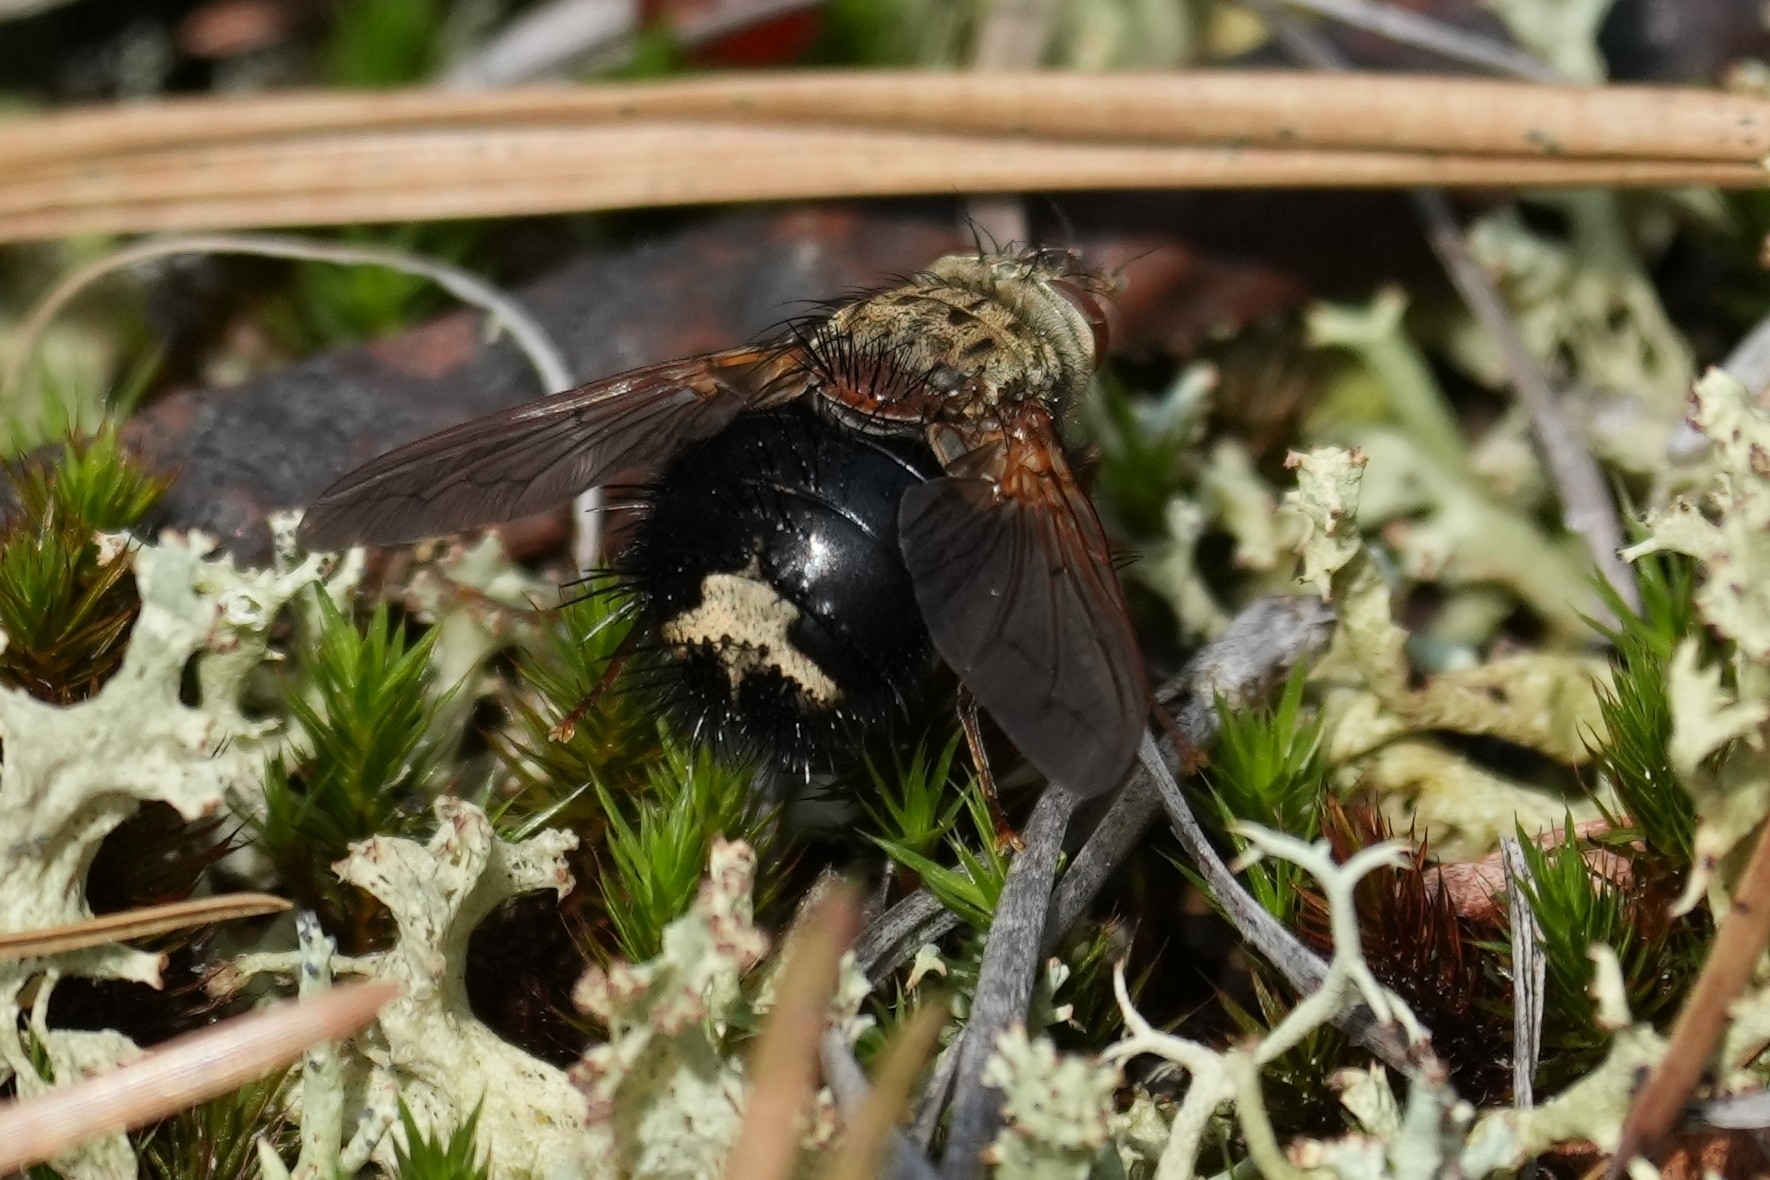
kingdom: Animalia
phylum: Arthropoda
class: Insecta
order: Diptera
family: Tachinidae
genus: Epalpus
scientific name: Epalpus signifer
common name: Early tachinid fly
